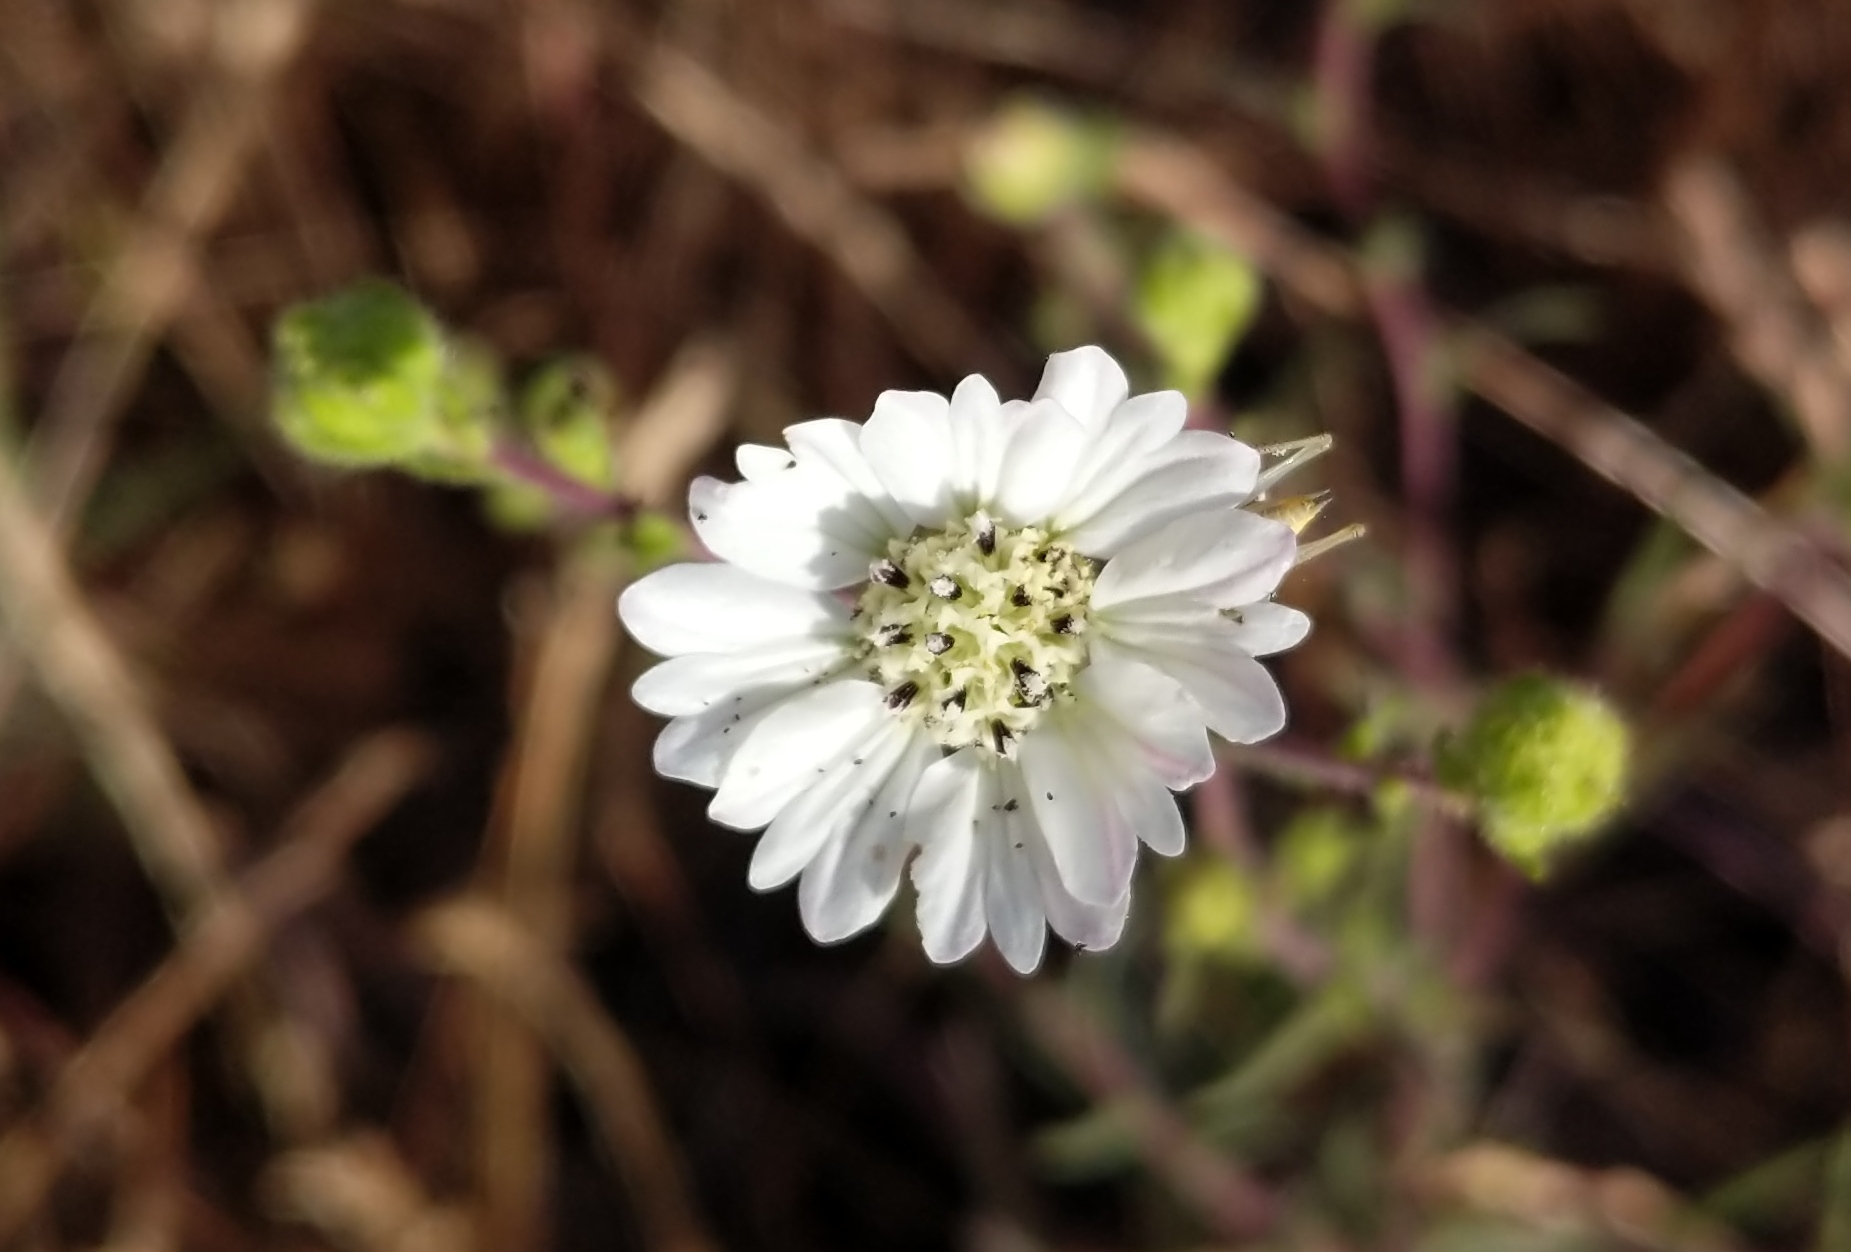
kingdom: Plantae
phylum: Tracheophyta
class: Magnoliopsida
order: Asterales
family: Asteraceae
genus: Hemizonia
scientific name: Hemizonia congesta
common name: Hayfield tarweed
